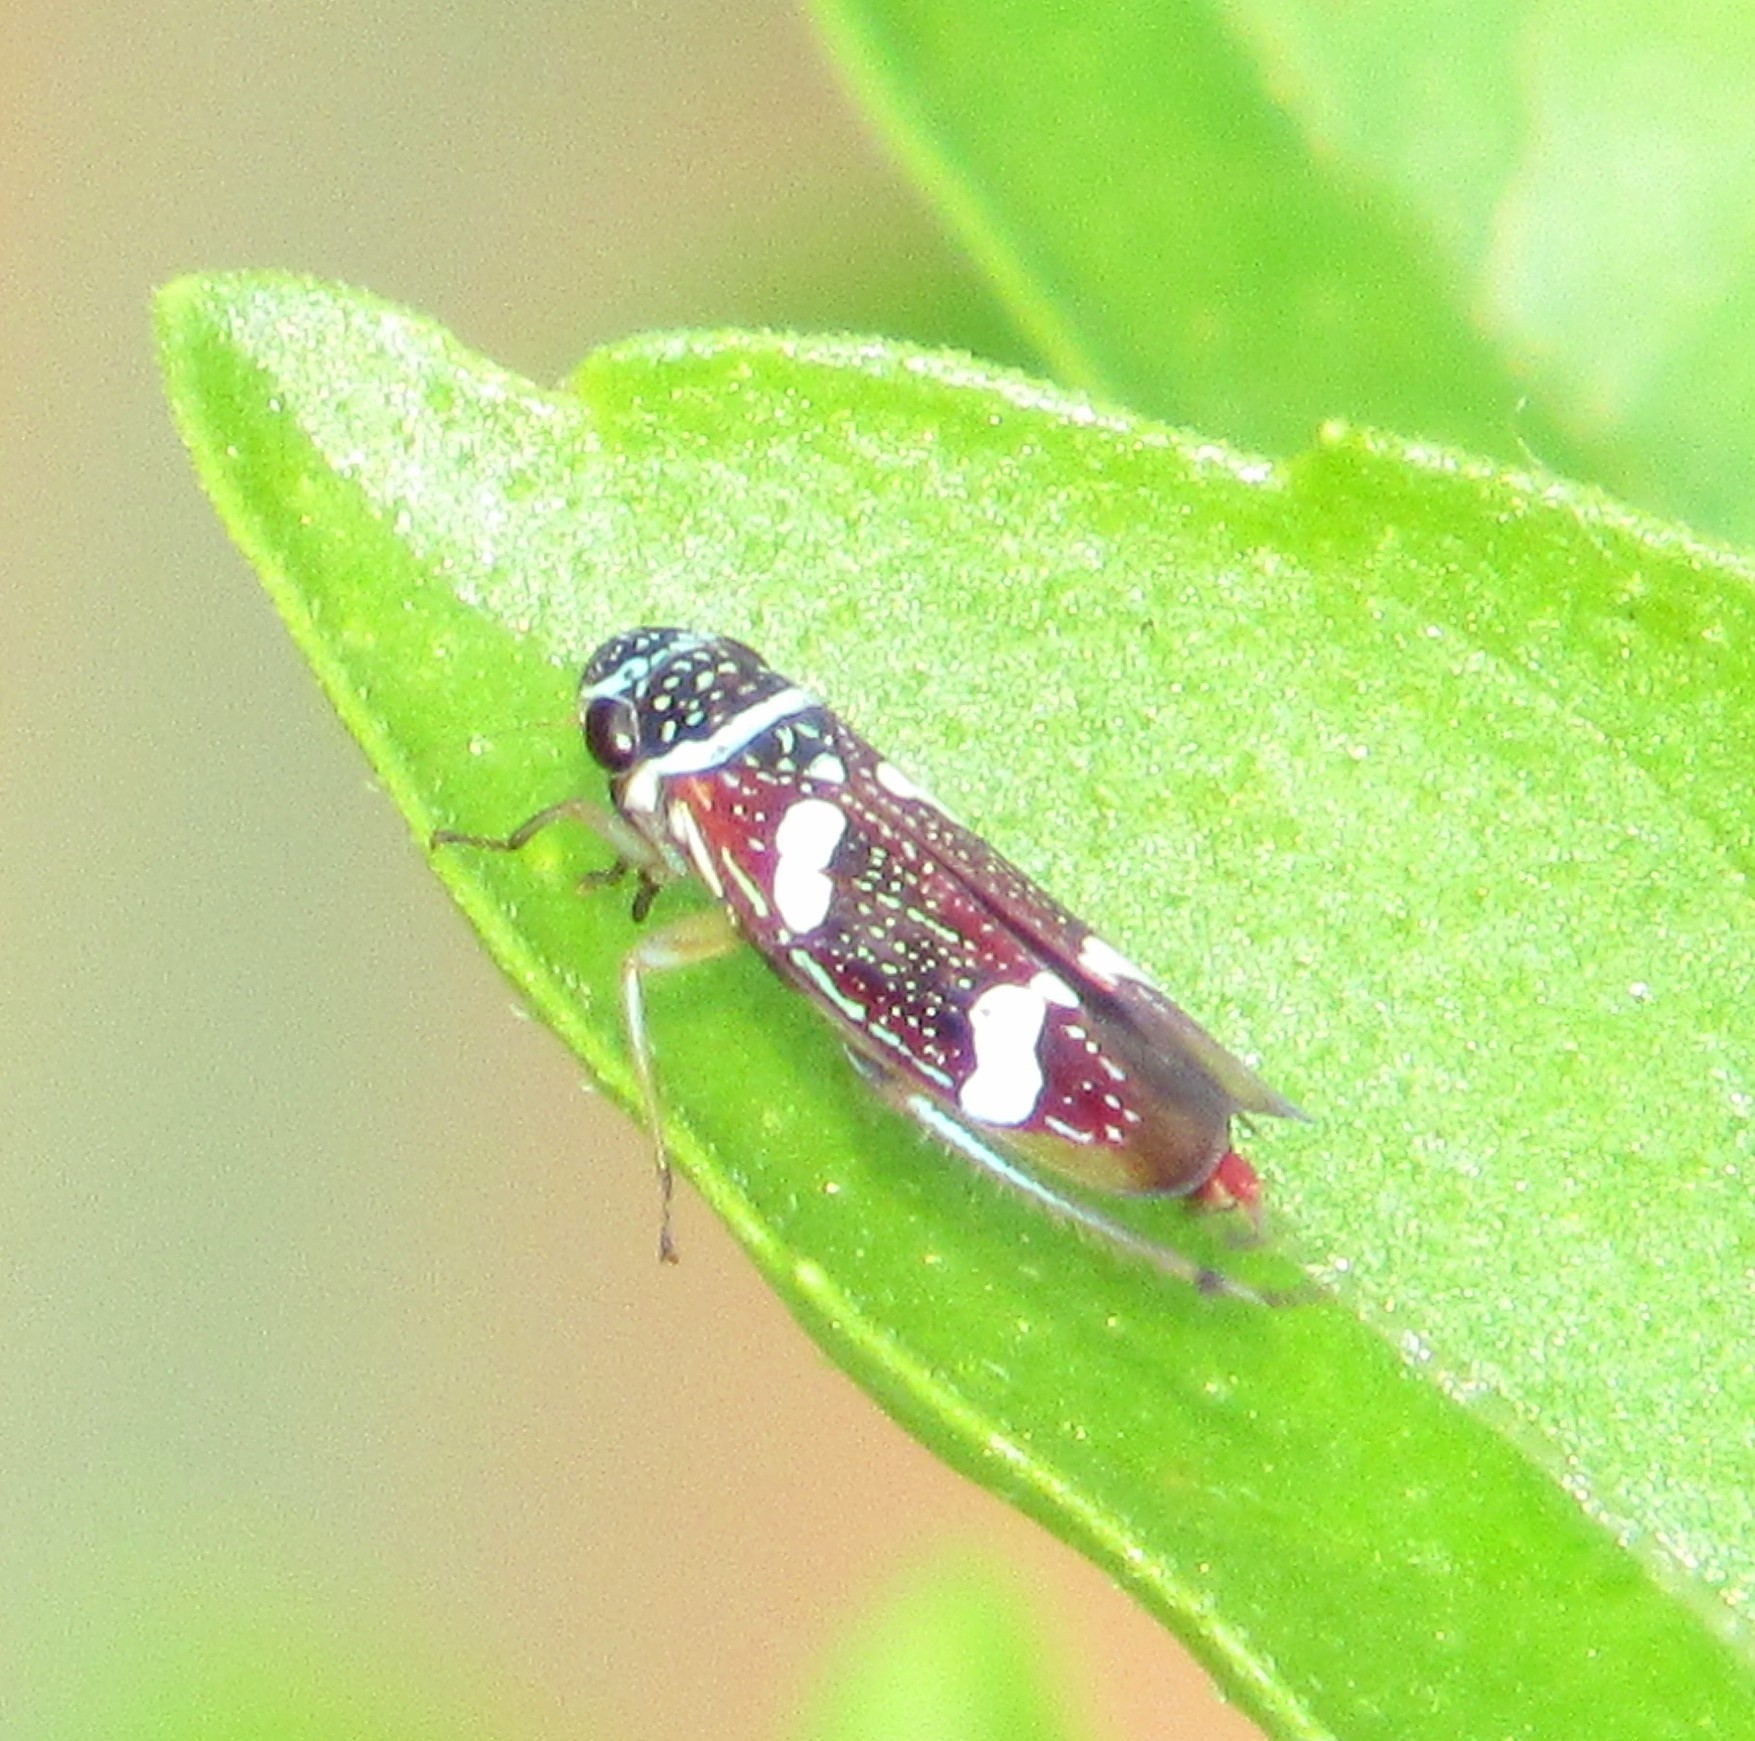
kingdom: Animalia
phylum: Arthropoda
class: Insecta
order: Hemiptera
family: Cicadellidae
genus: Macugonalia
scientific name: Macugonalia leucomelas
